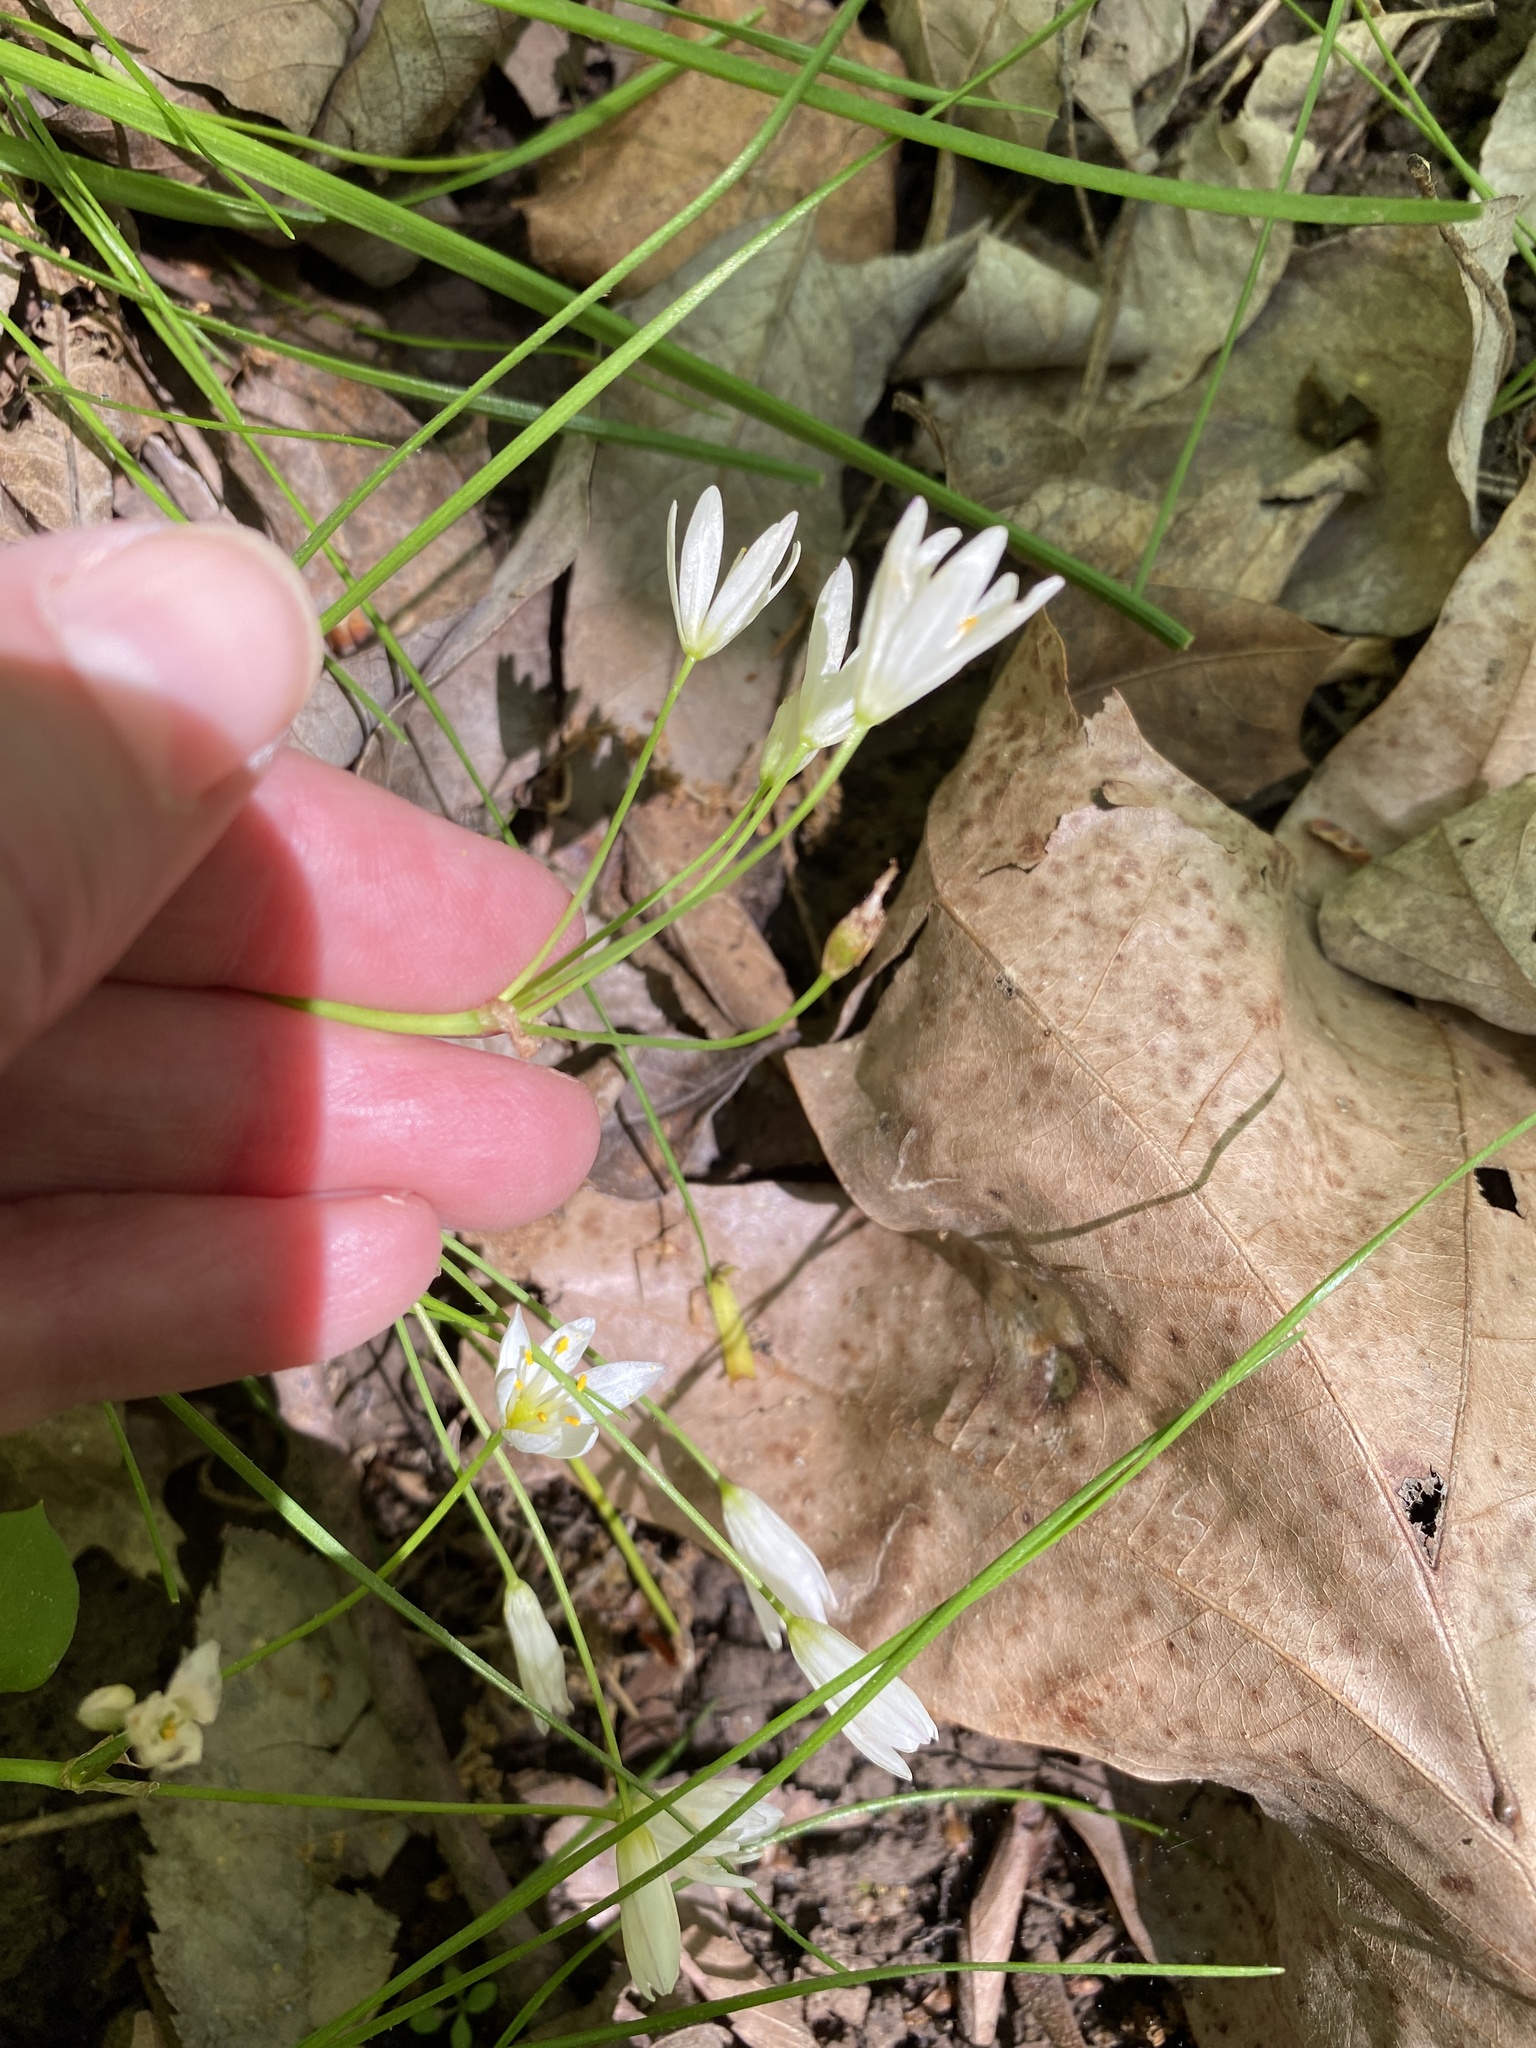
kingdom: Plantae
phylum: Tracheophyta
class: Liliopsida
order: Asparagales
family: Amaryllidaceae
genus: Nothoscordum
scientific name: Nothoscordum bivalve
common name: Crow-poison
